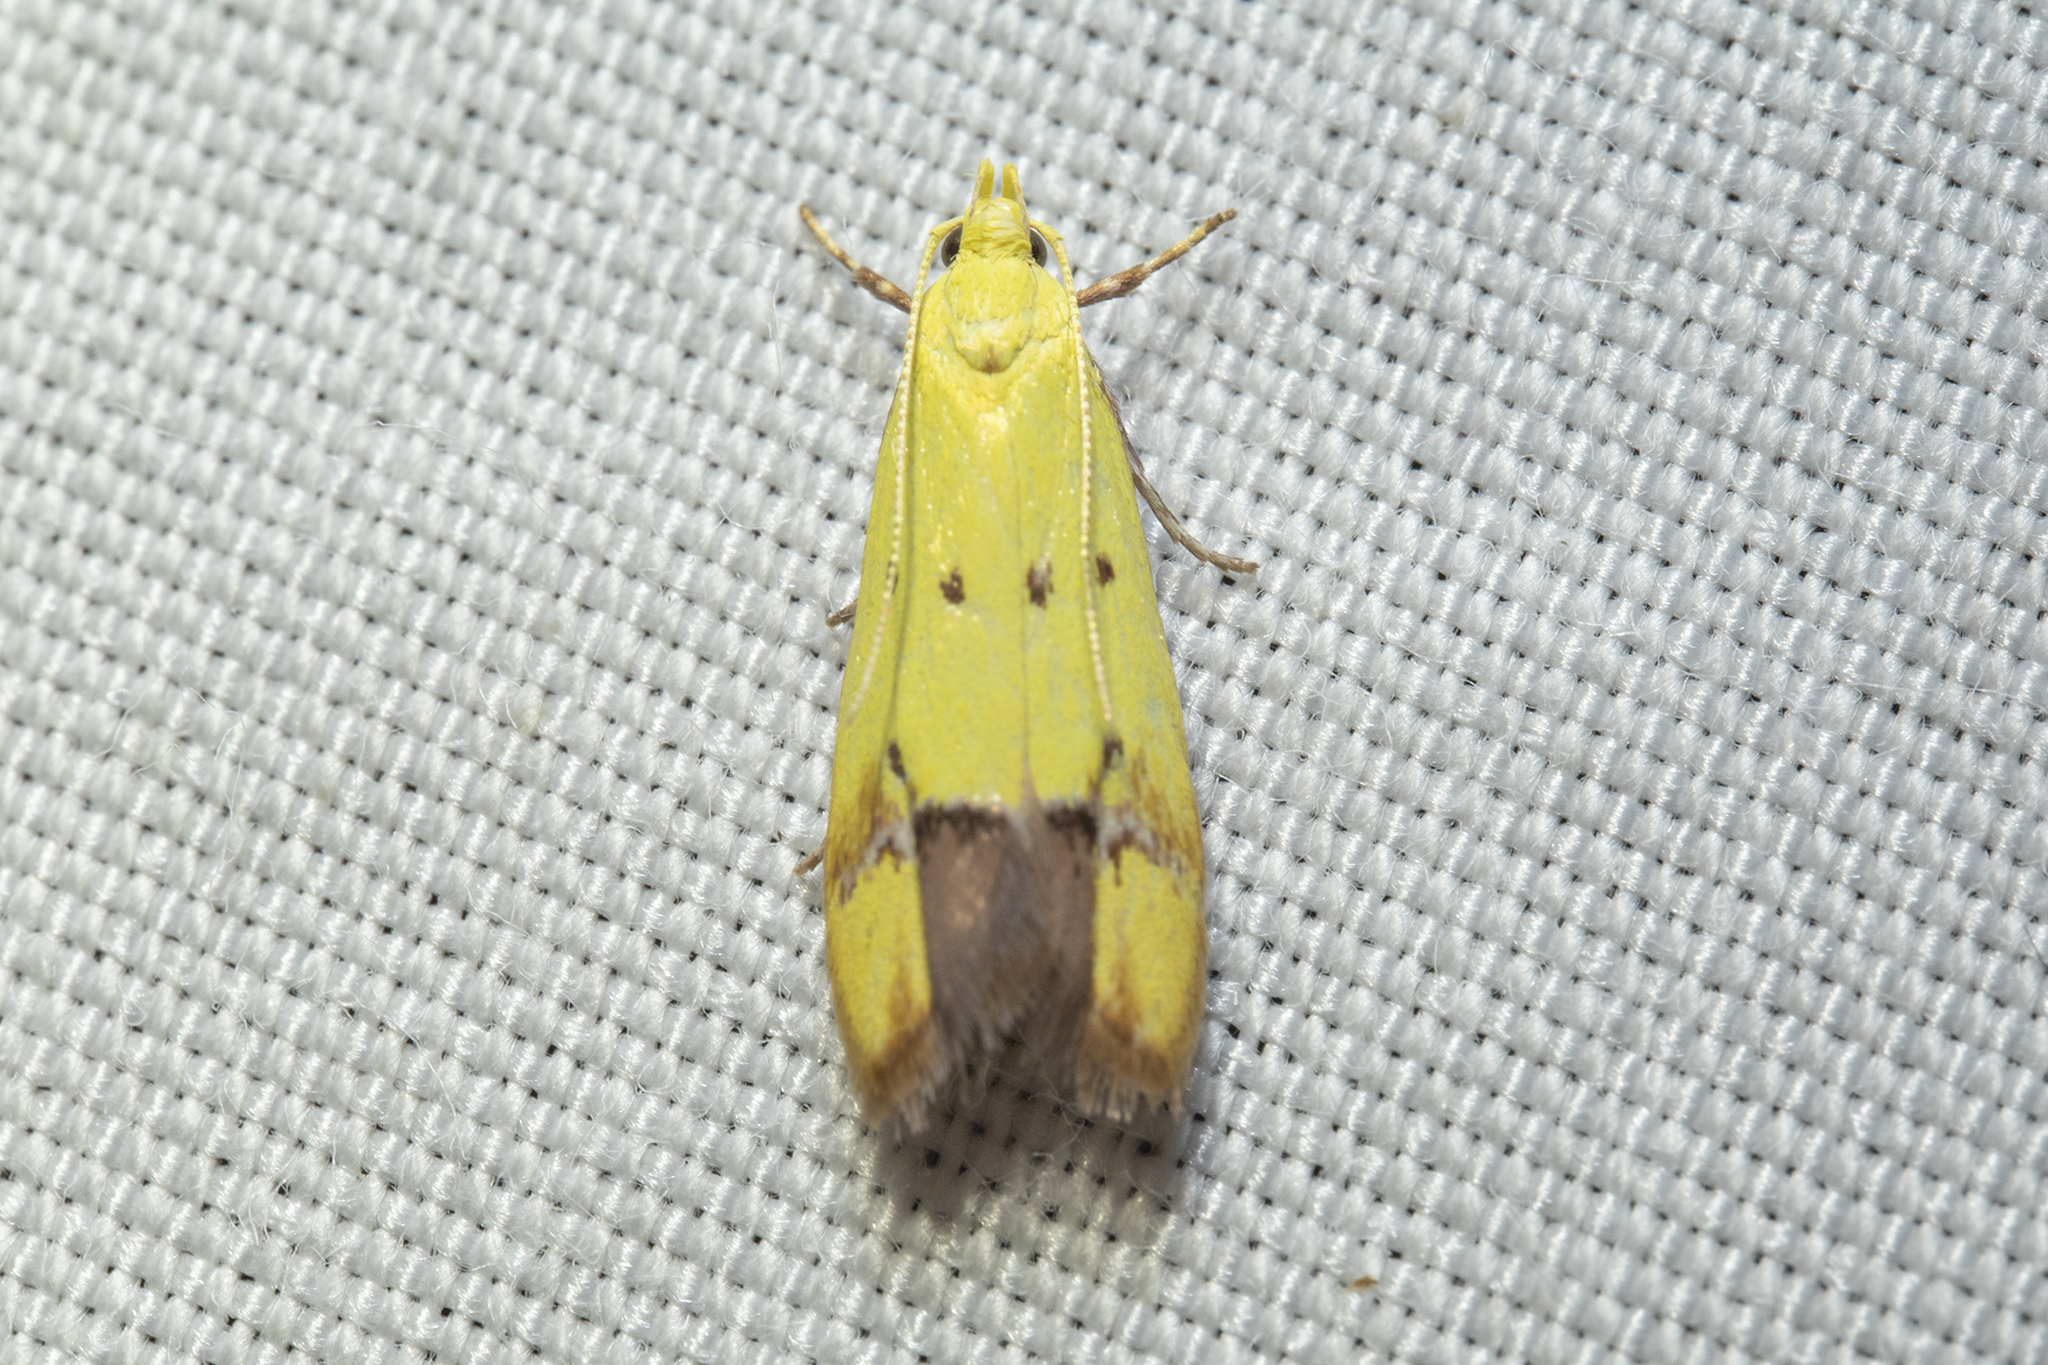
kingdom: Animalia
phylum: Arthropoda
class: Insecta
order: Lepidoptera
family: Oecophoridae
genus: Gymnobathra
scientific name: Gymnobathra flavidella
